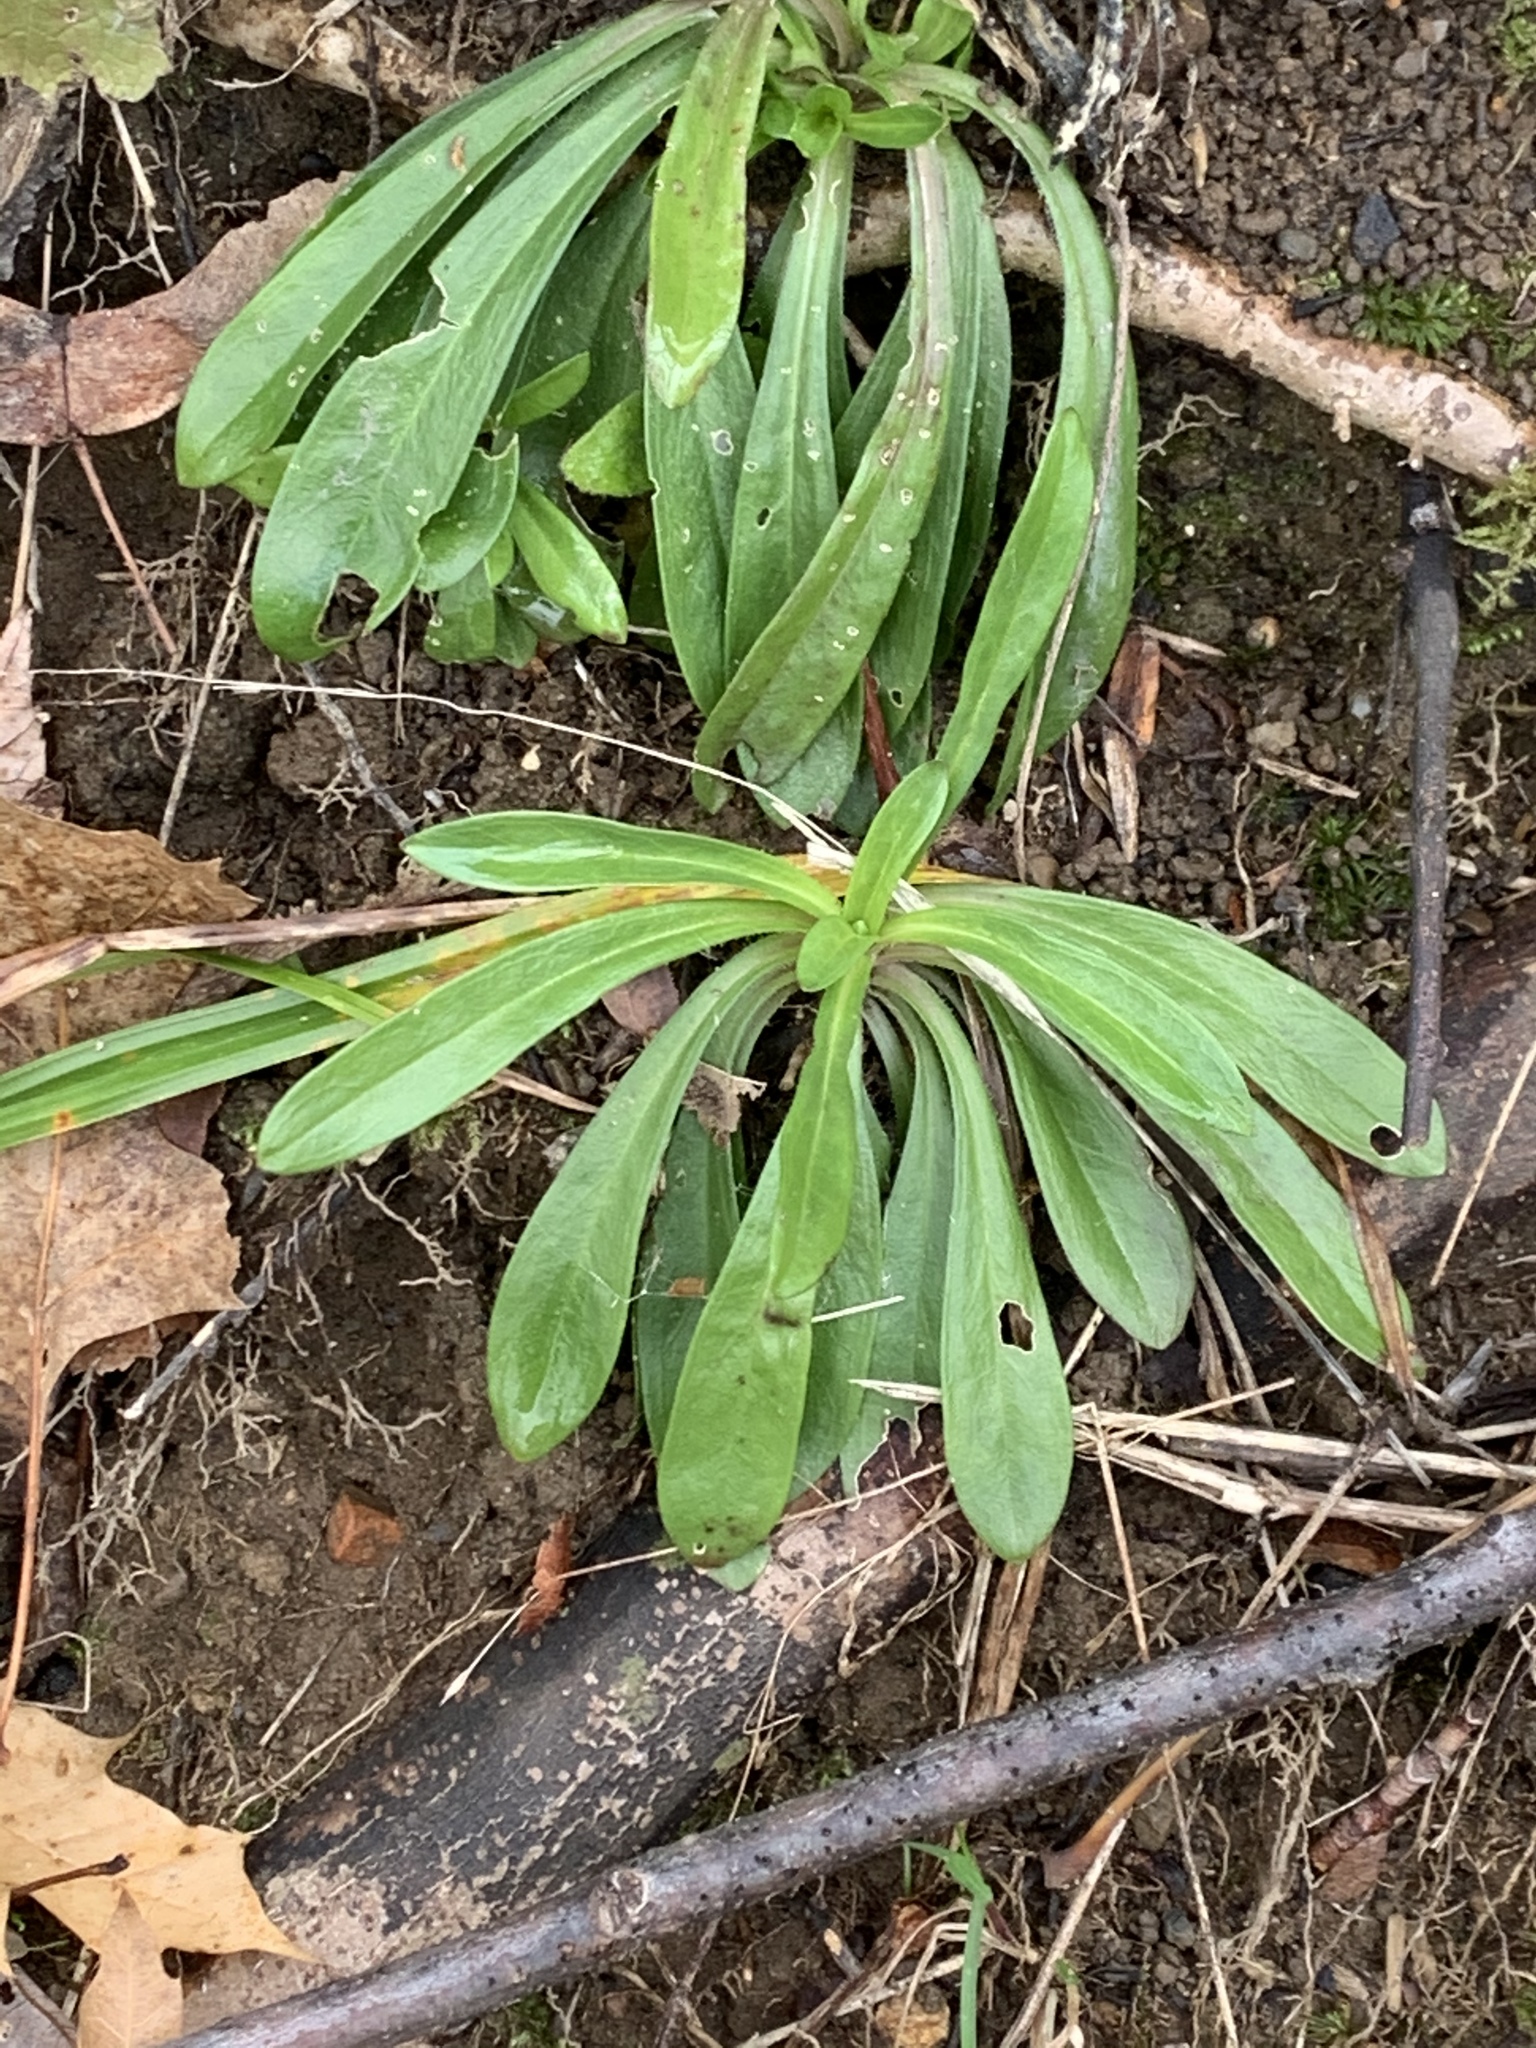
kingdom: Plantae
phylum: Tracheophyta
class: Magnoliopsida
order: Caryophyllales
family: Caryophyllaceae
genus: Dianthus
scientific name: Dianthus armeria
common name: Deptford pink
